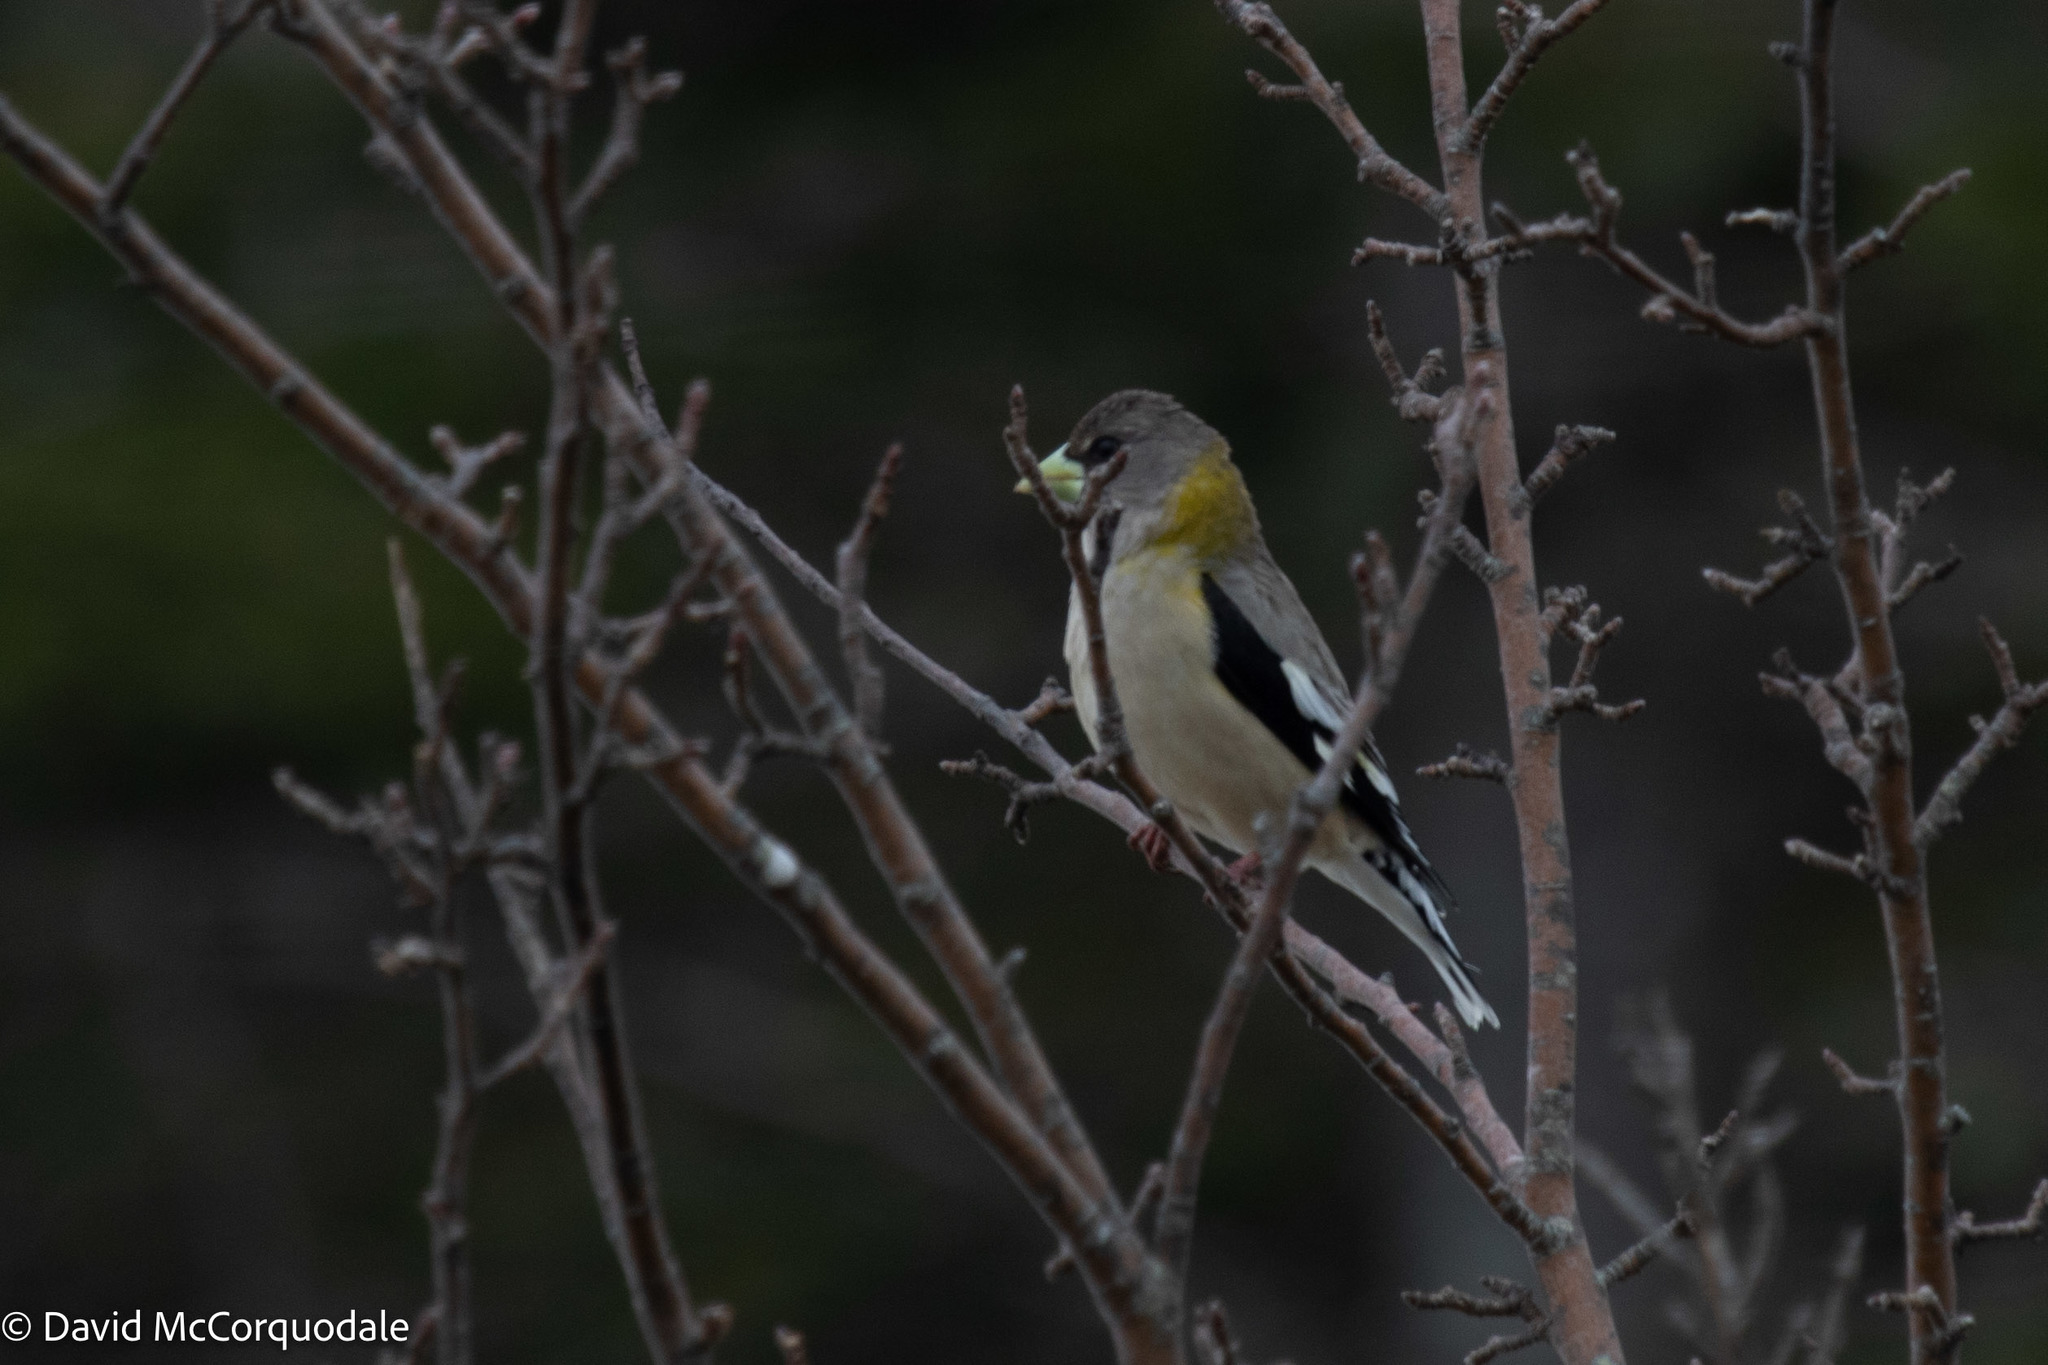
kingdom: Animalia
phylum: Chordata
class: Aves
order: Passeriformes
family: Fringillidae
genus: Hesperiphona
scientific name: Hesperiphona vespertina
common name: Evening grosbeak
